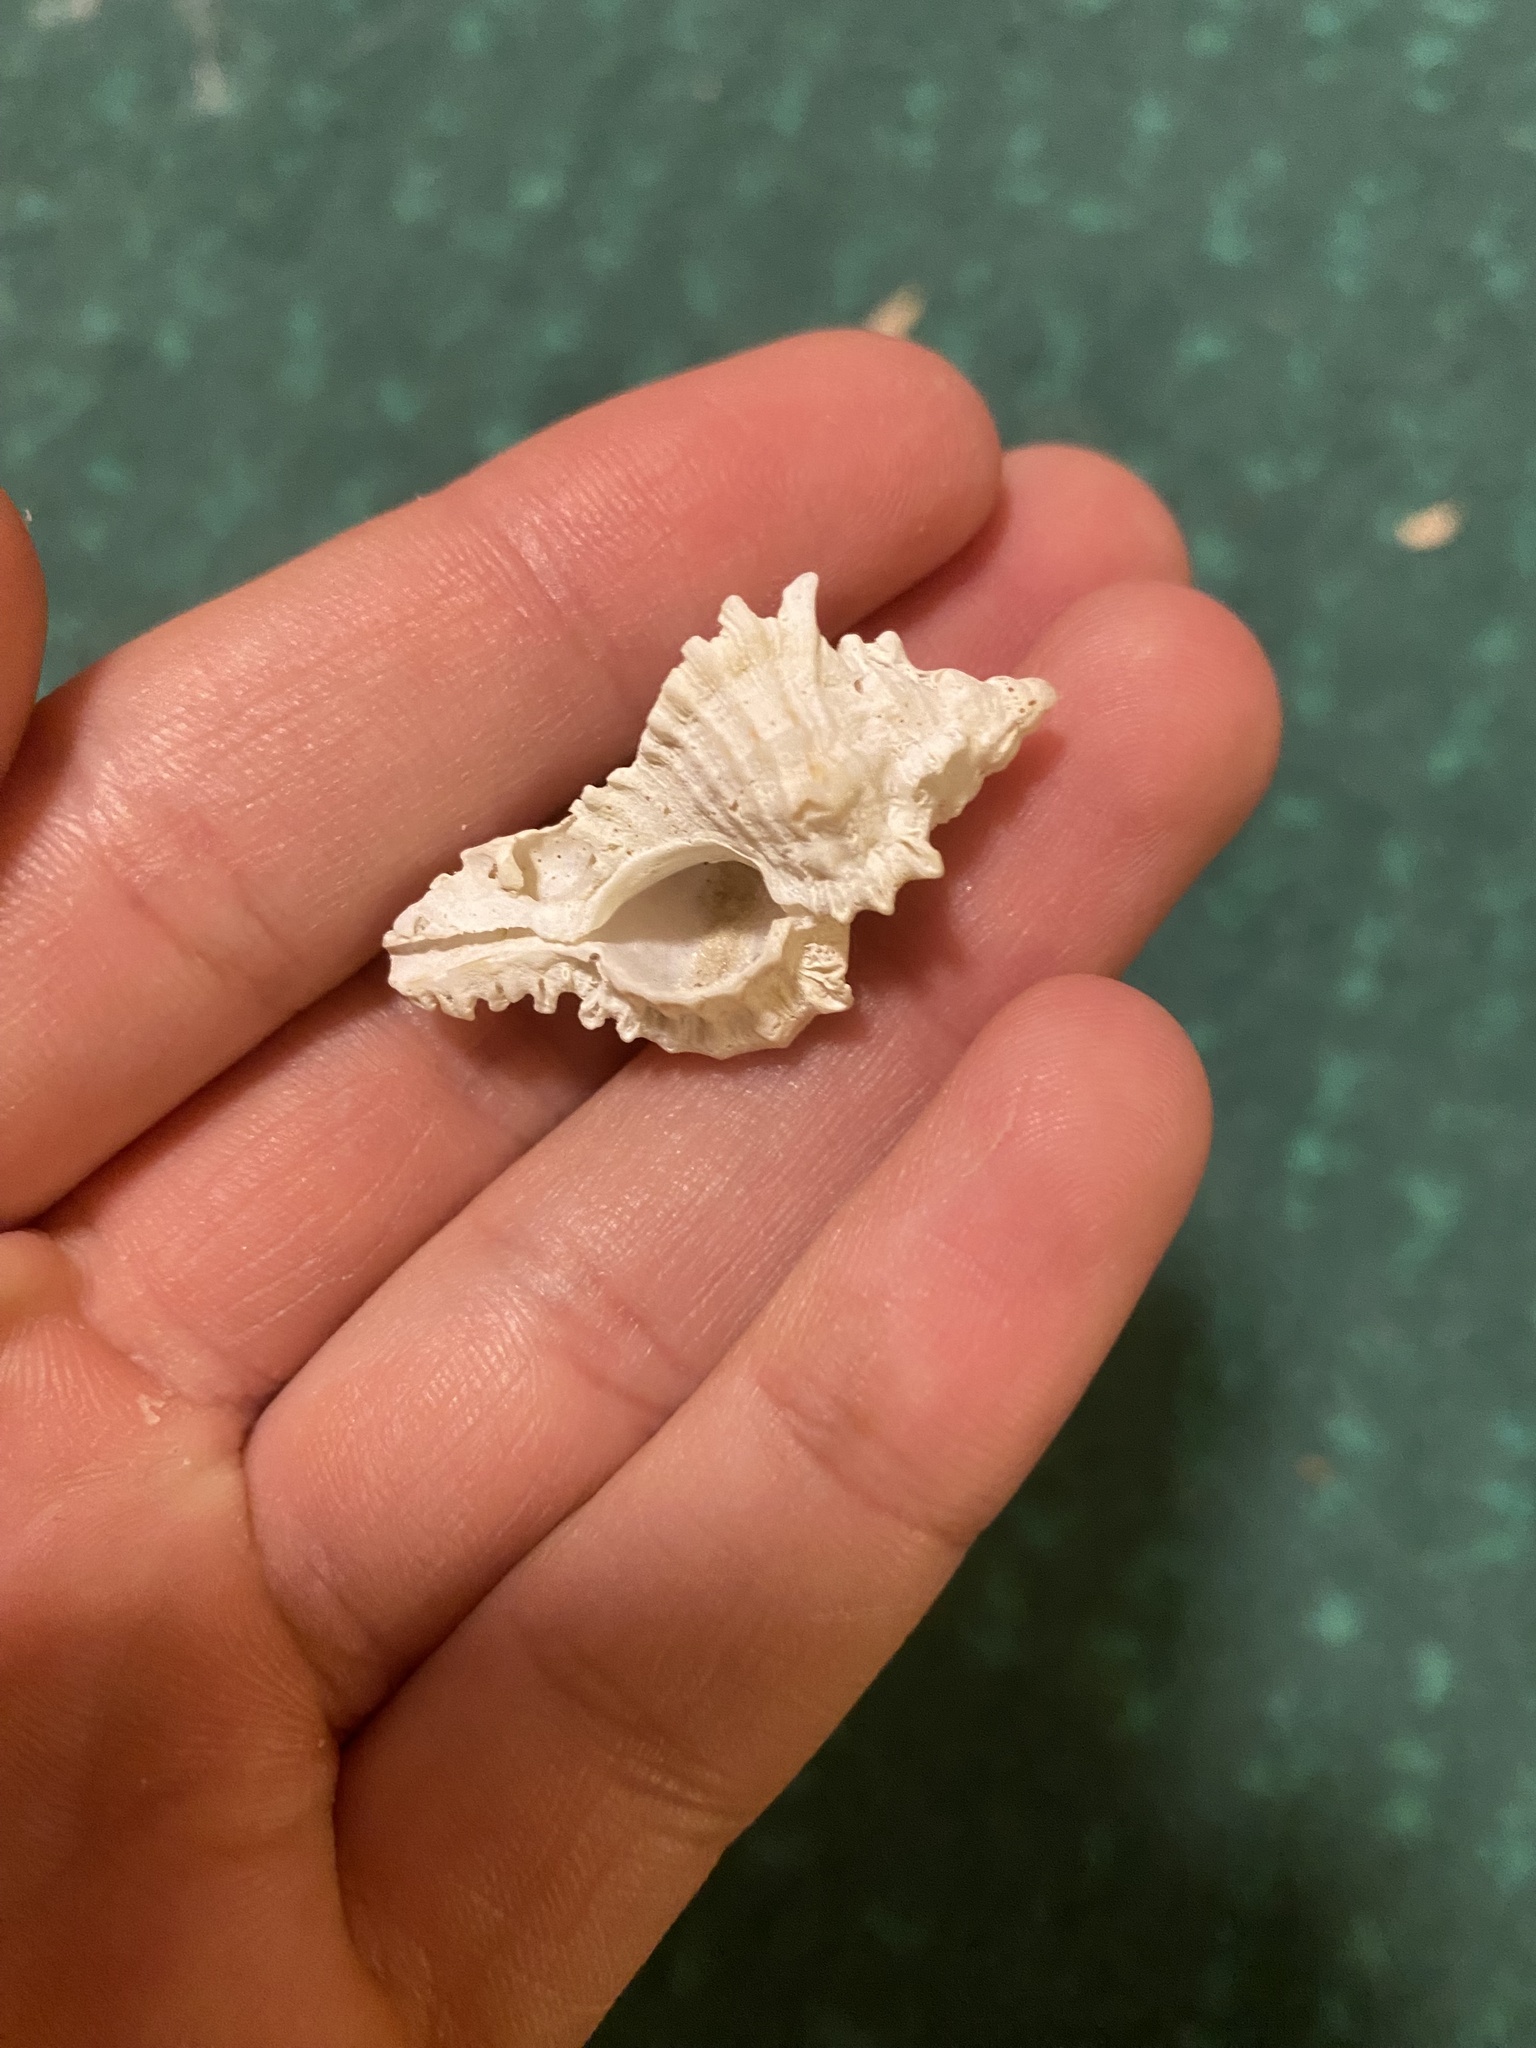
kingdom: Animalia
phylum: Mollusca
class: Gastropoda
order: Neogastropoda
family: Muricidae
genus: Chicoreus
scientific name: Chicoreus florifer
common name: Flowery lace murex
